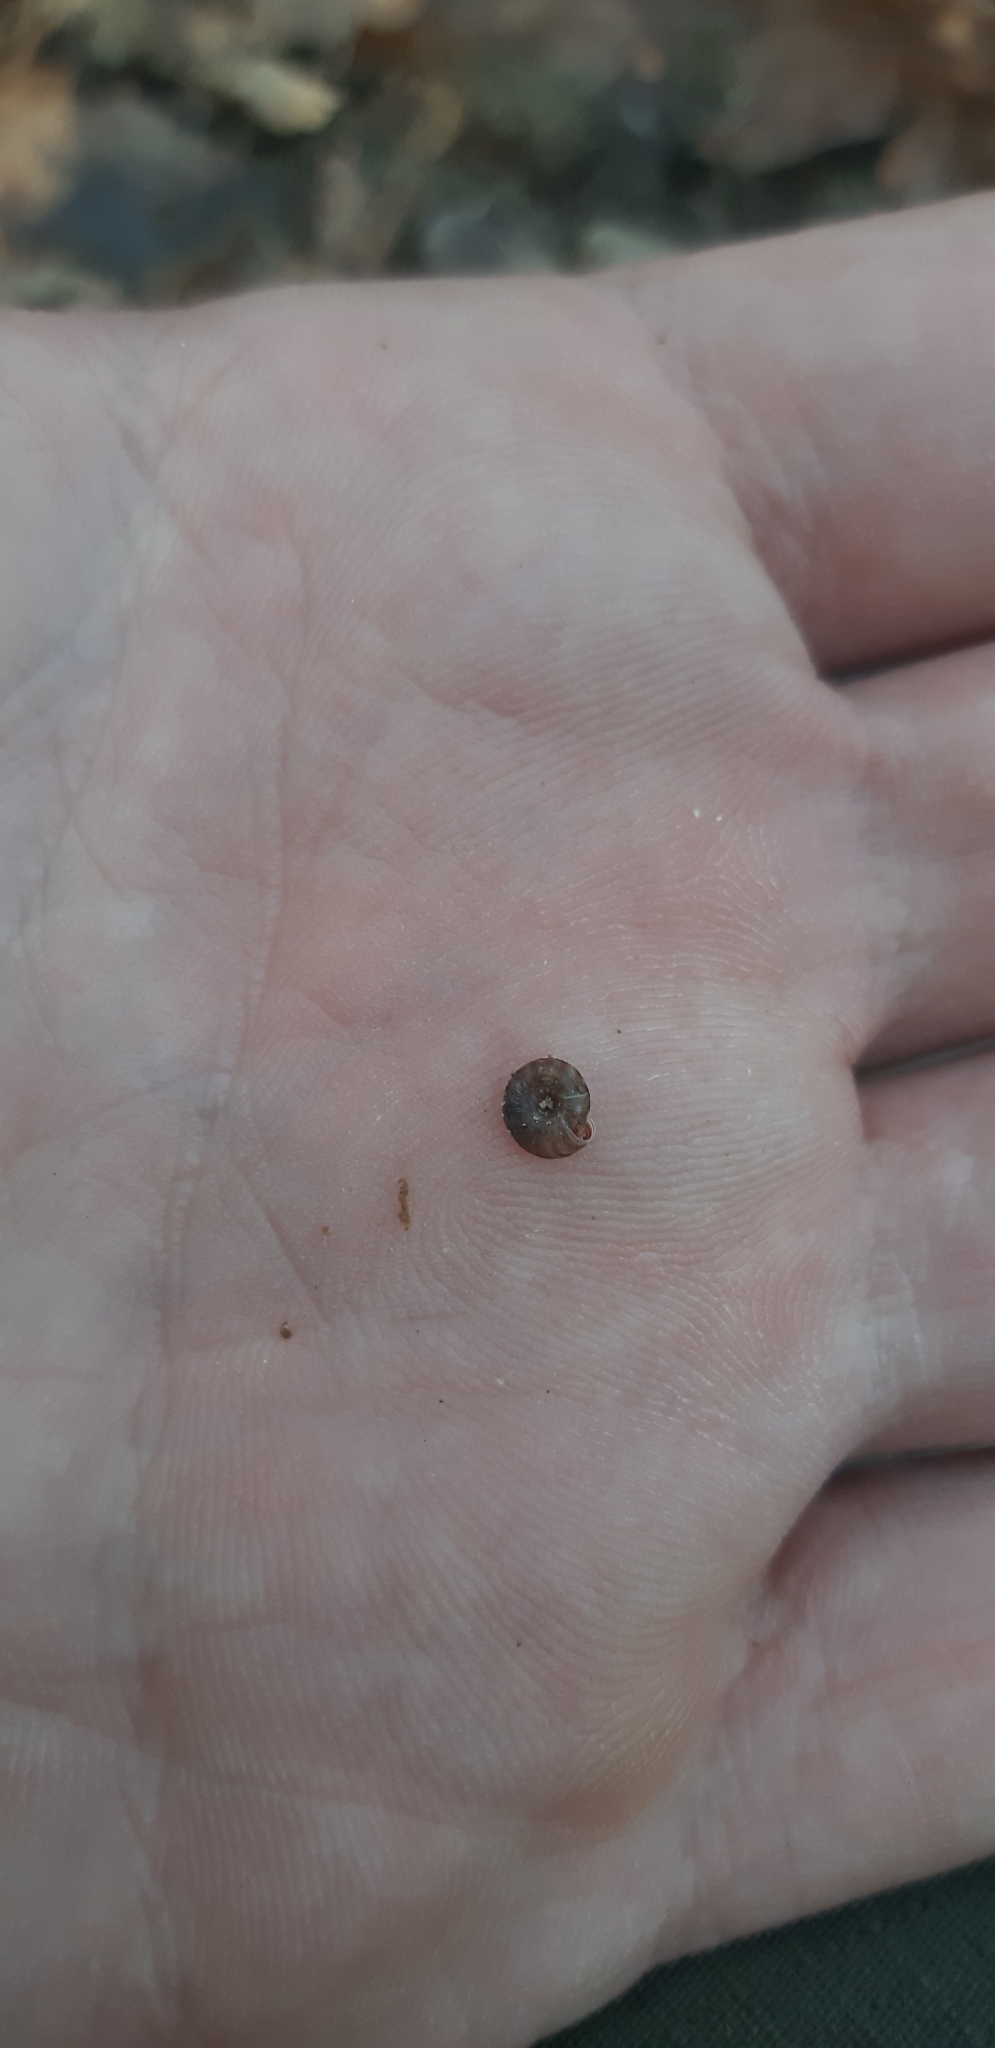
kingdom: Animalia
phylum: Mollusca
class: Gastropoda
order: Stylommatophora
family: Discidae
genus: Discus
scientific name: Discus rotundatus
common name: Rounded snail
